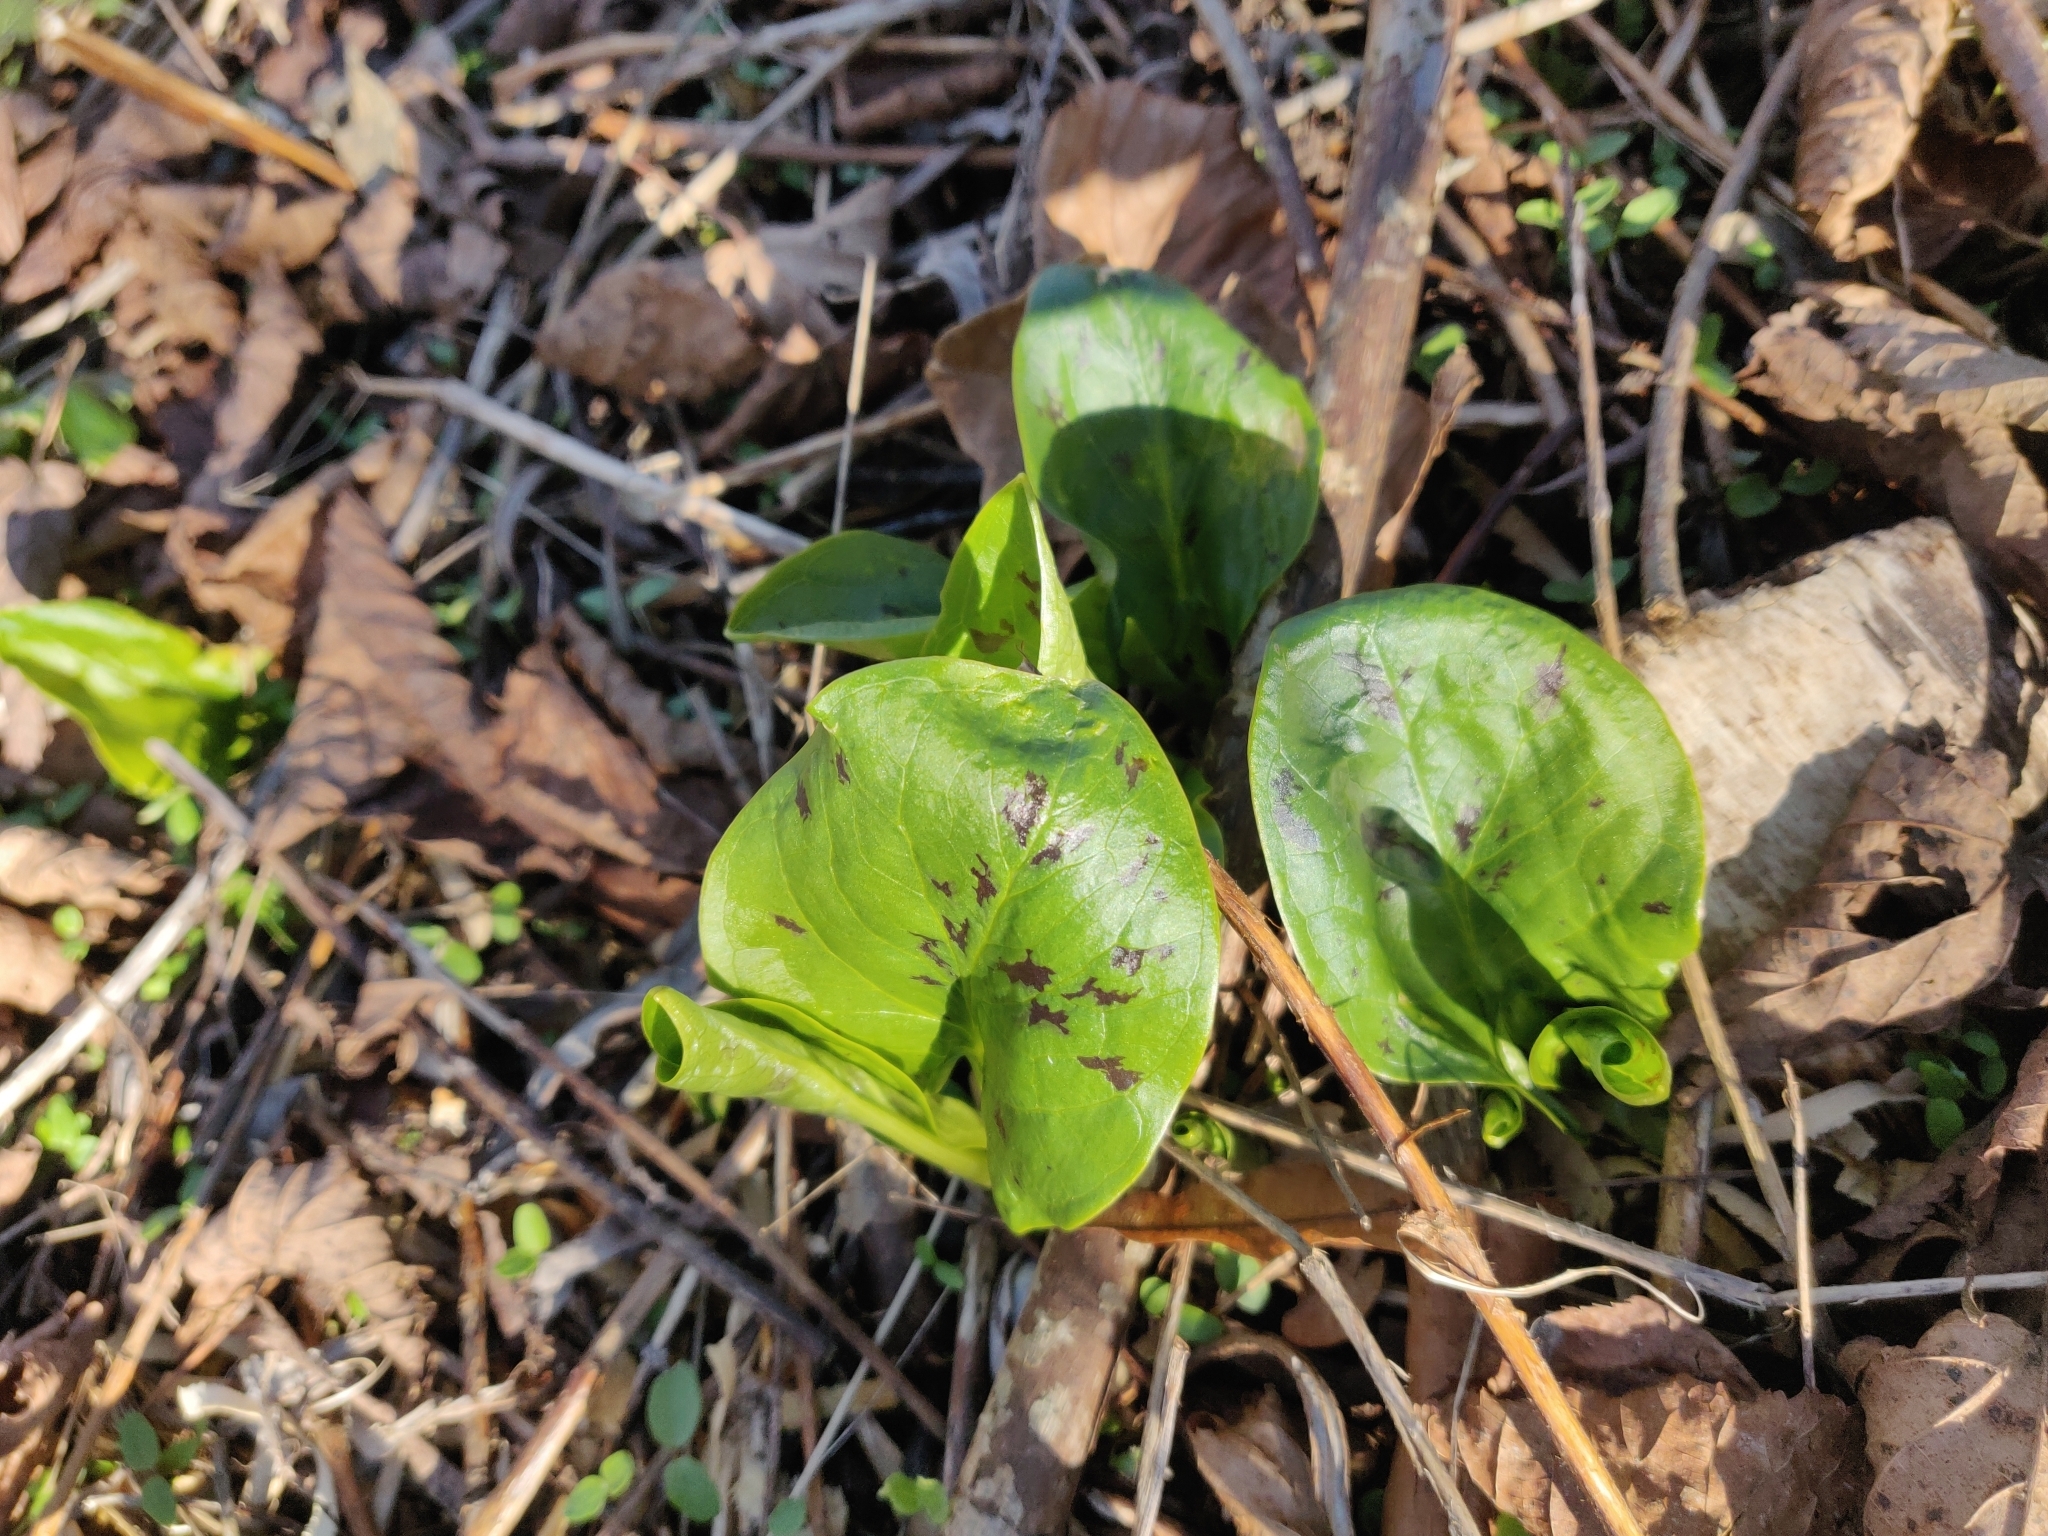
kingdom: Plantae
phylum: Tracheophyta
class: Liliopsida
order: Alismatales
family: Araceae
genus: Arum
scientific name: Arum maculatum
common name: Lords-and-ladies
